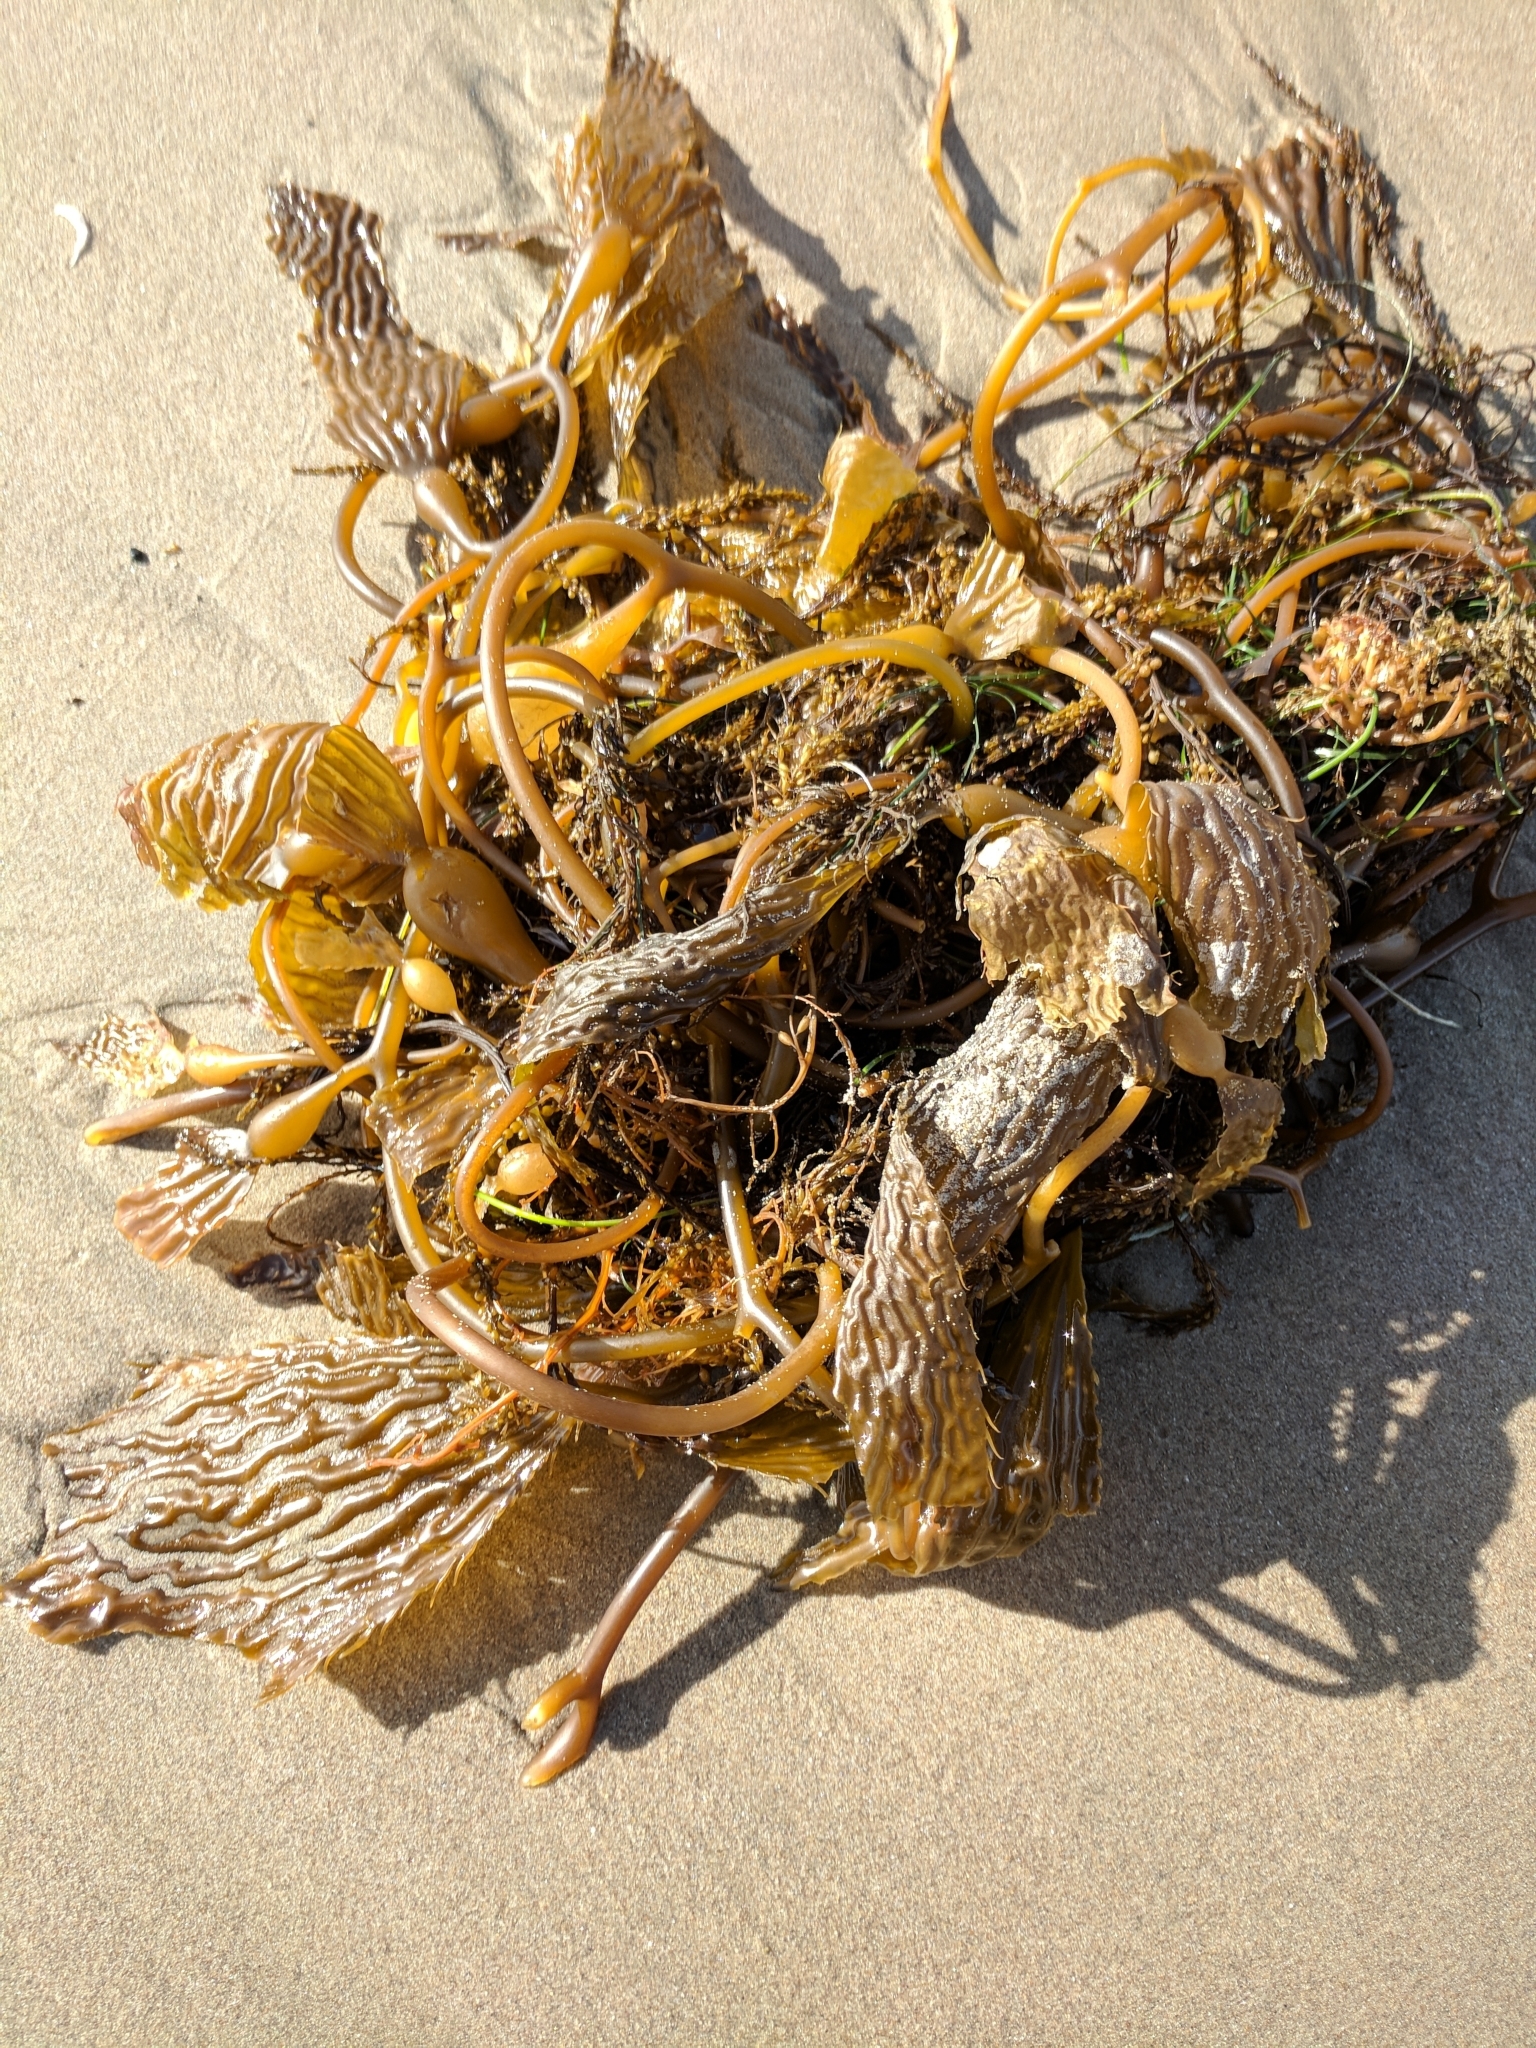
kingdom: Chromista
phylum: Ochrophyta
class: Phaeophyceae
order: Laminariales
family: Laminariaceae
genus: Macrocystis
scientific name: Macrocystis pyrifera
